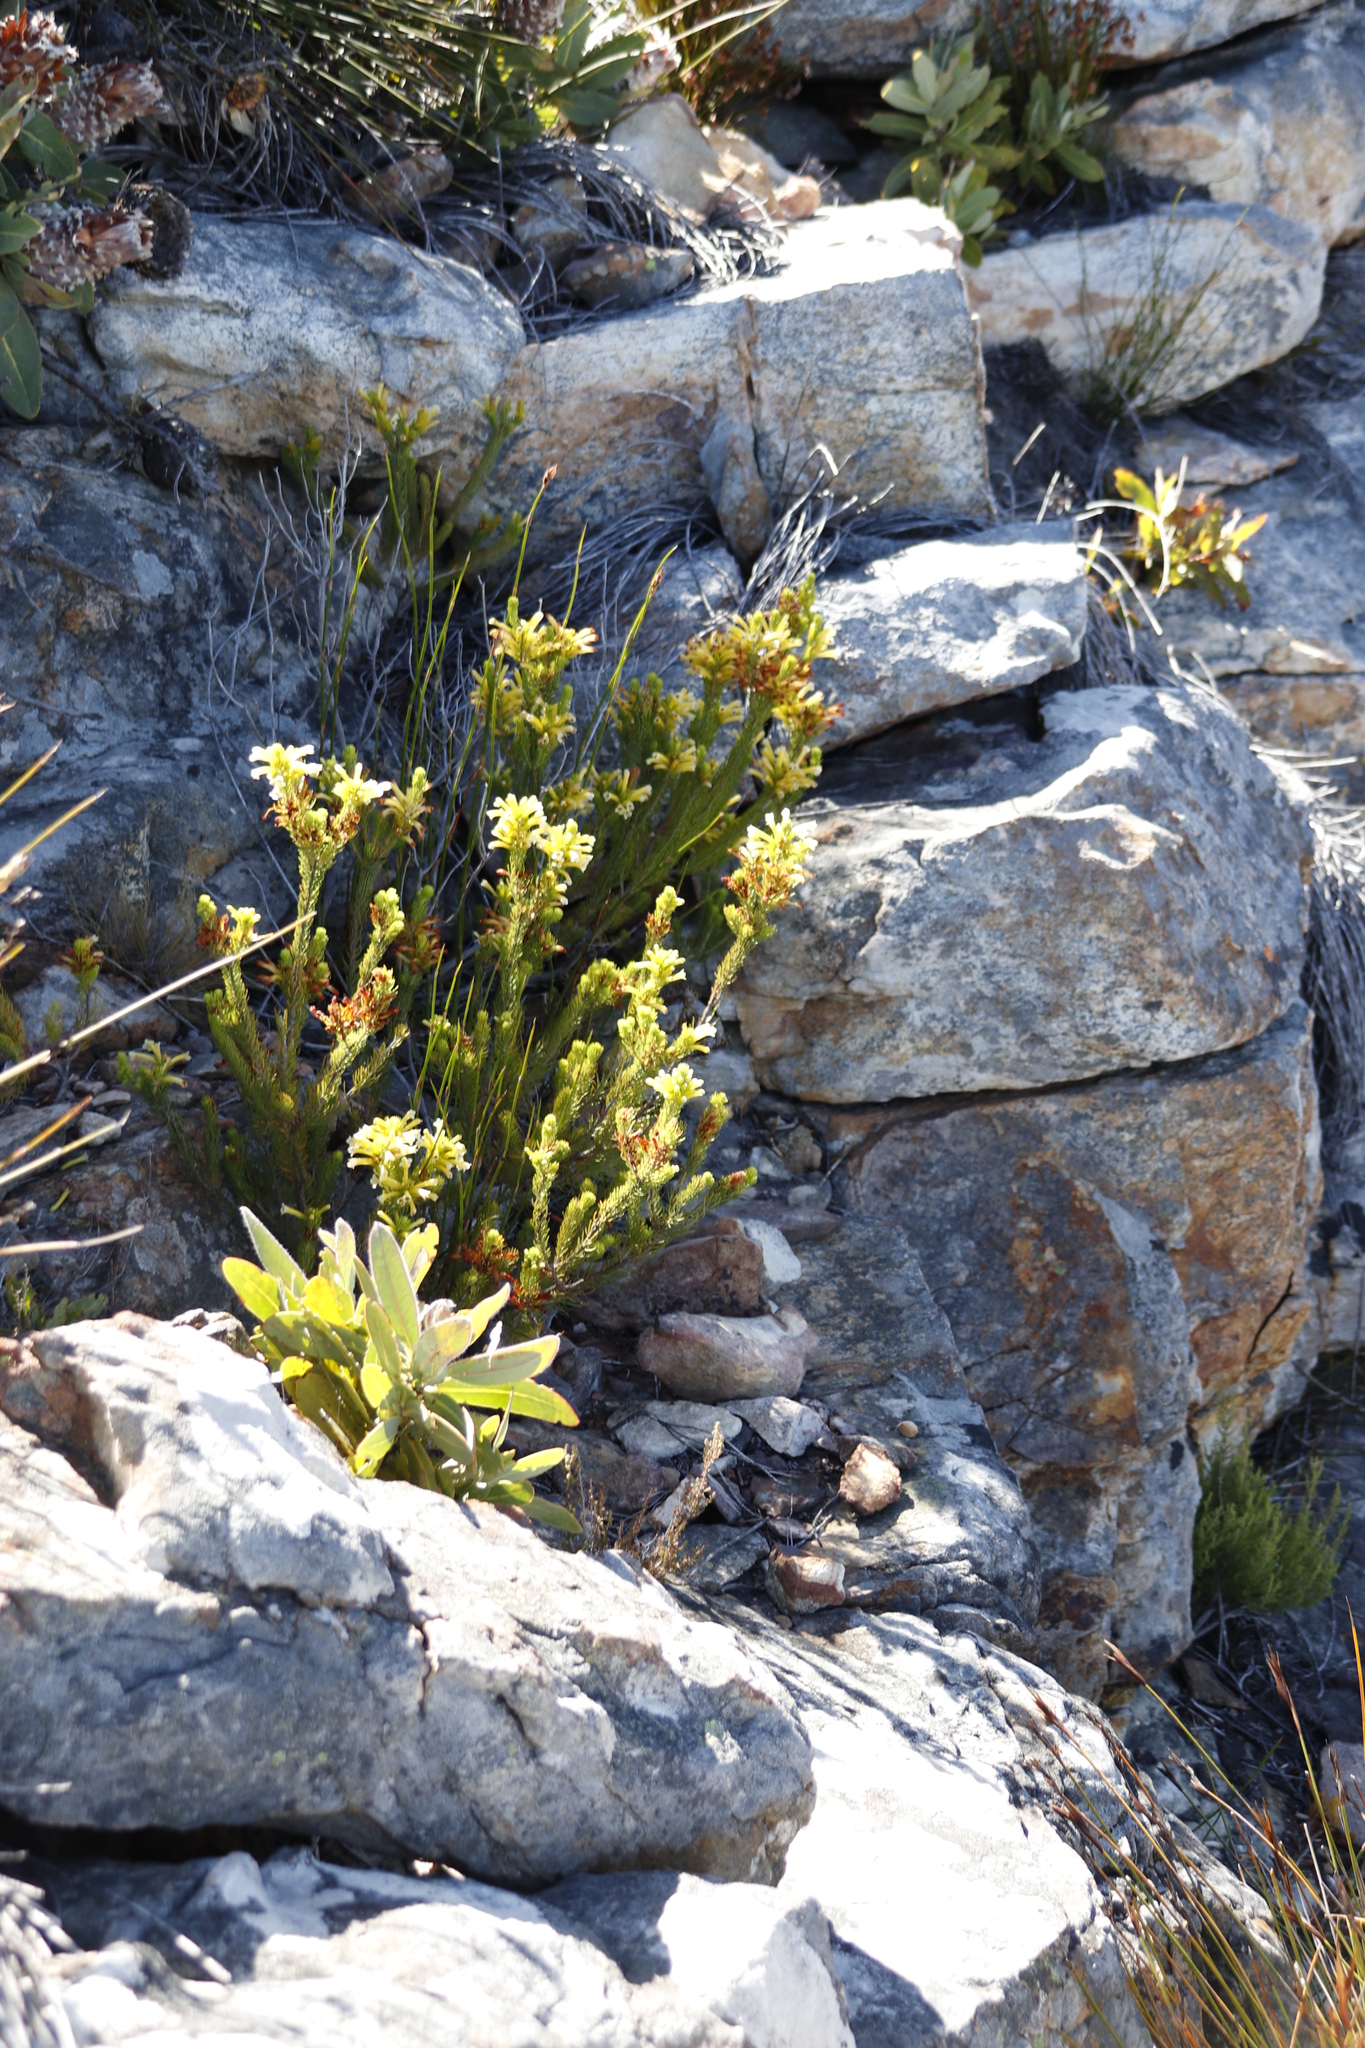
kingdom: Plantae
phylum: Tracheophyta
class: Magnoliopsida
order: Ericales
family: Ericaceae
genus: Erica
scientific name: Erica pinea
